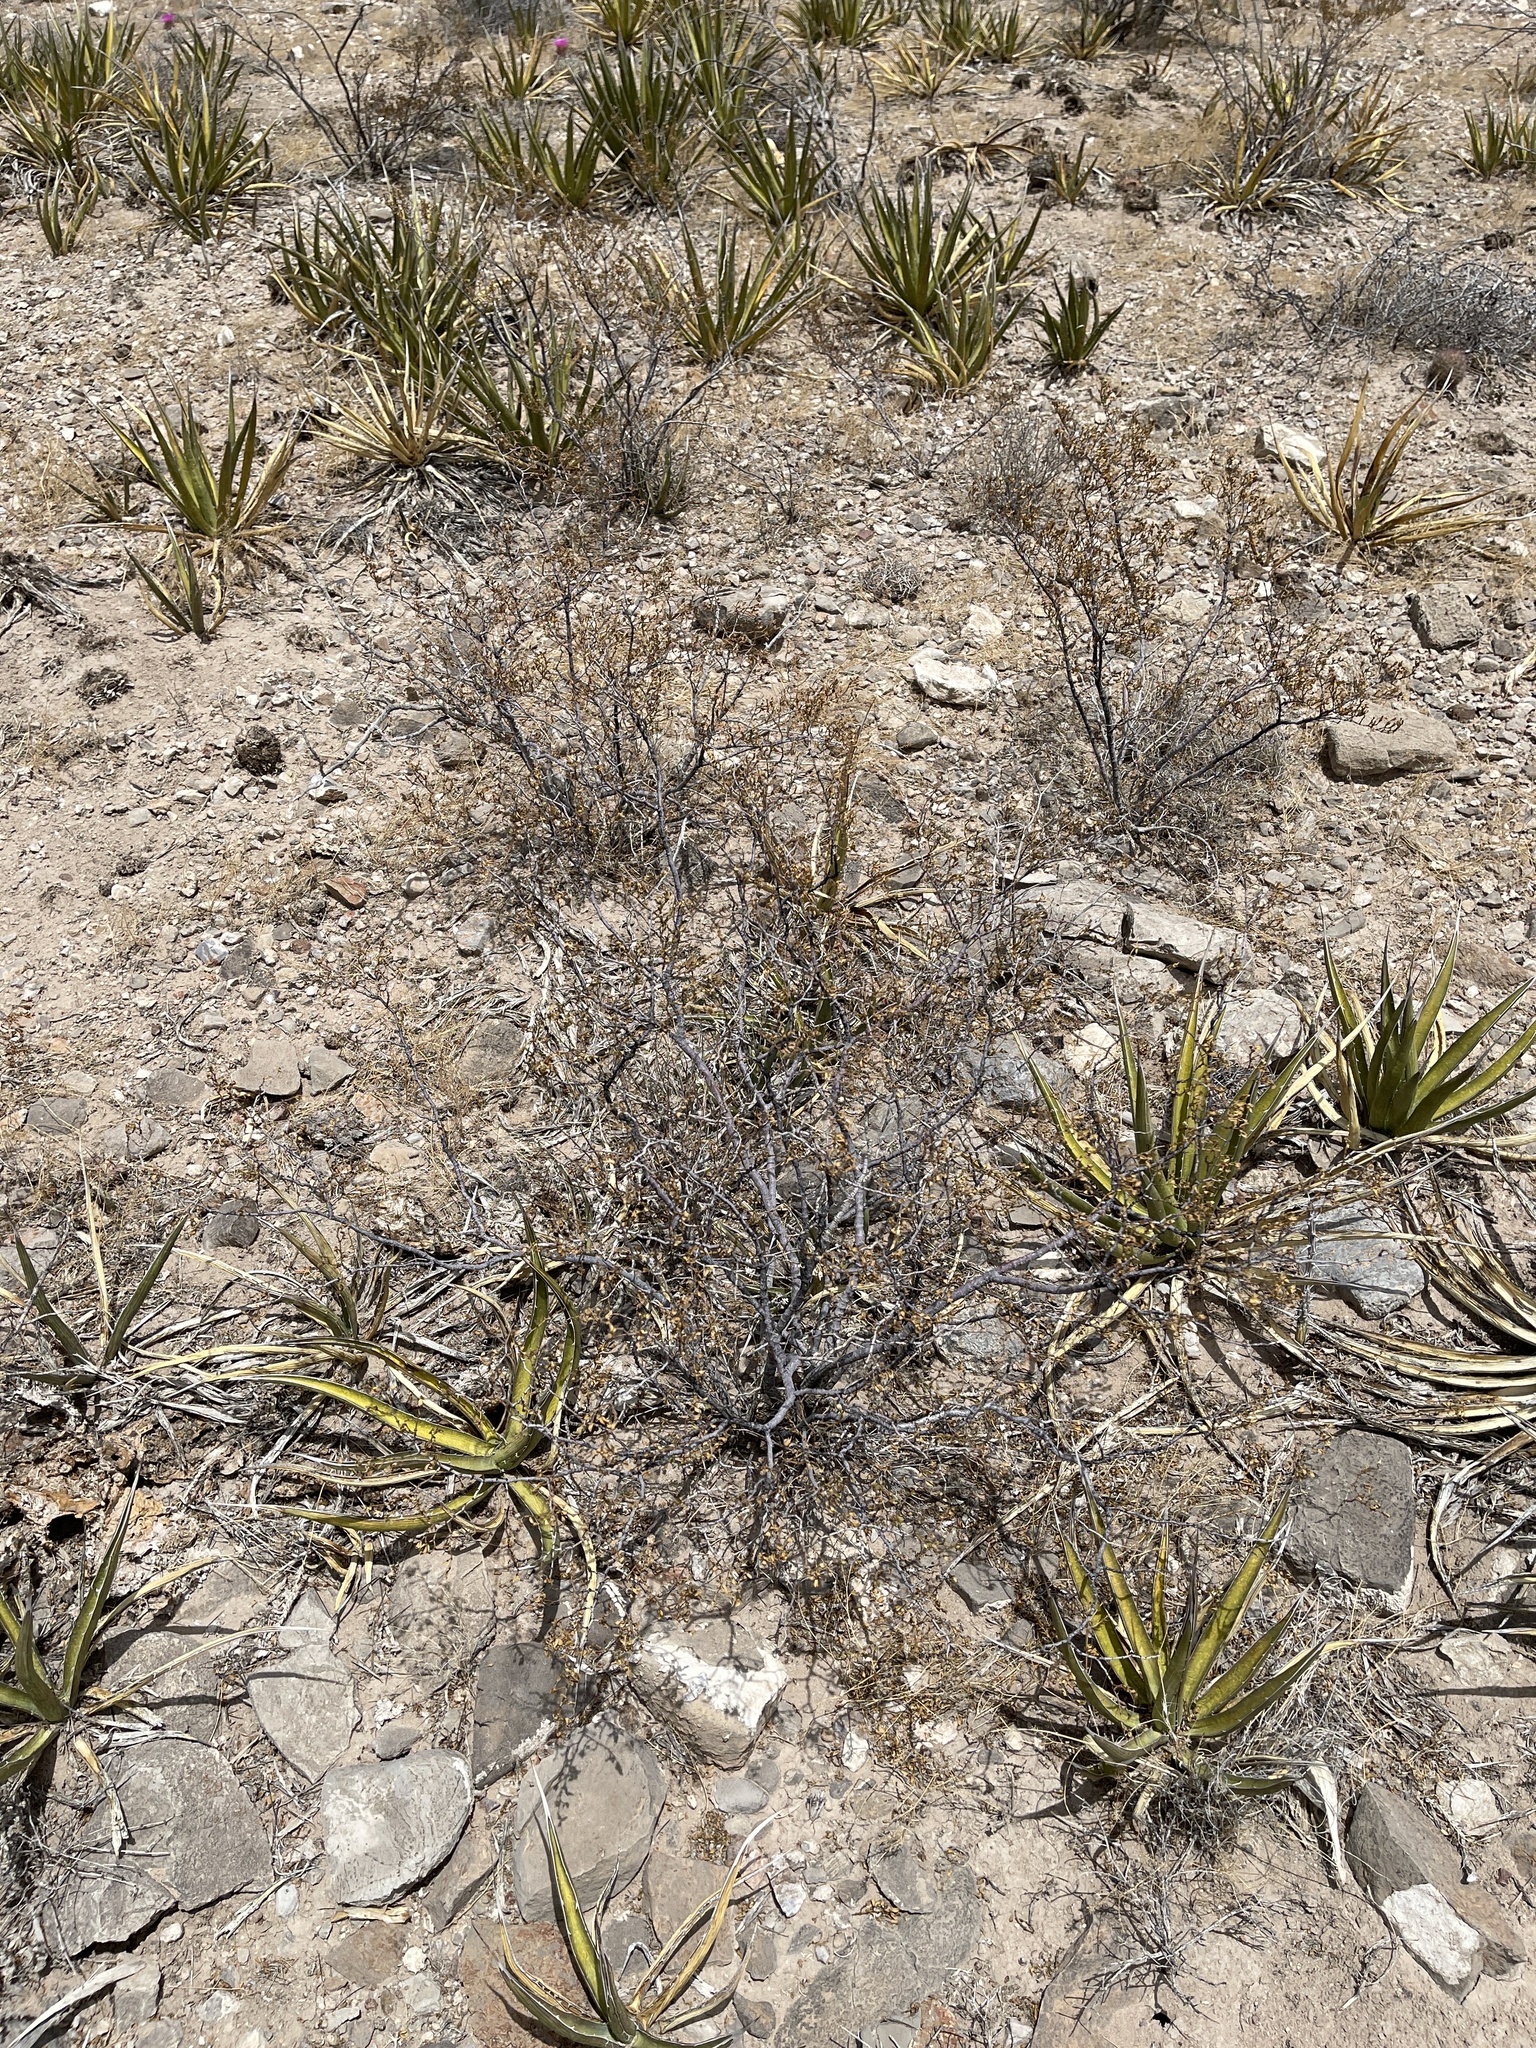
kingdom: Plantae
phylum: Tracheophyta
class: Magnoliopsida
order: Zygophyllales
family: Zygophyllaceae
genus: Larrea
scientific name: Larrea tridentata
